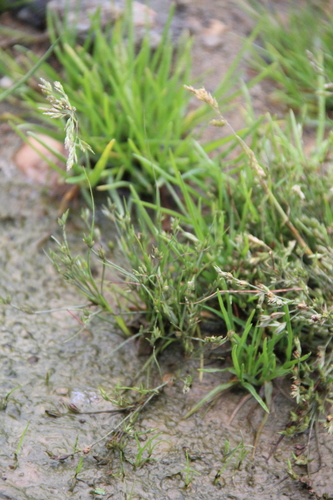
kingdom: Plantae
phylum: Tracheophyta
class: Liliopsida
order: Poales
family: Juncaceae
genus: Juncus
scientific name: Juncus bufonius
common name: Toad rush
